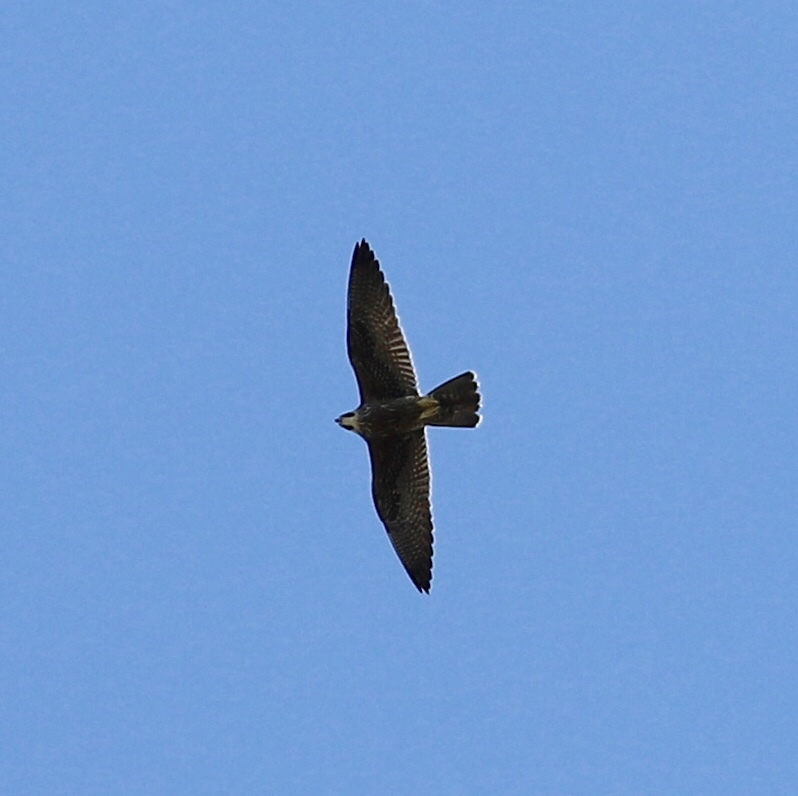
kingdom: Animalia
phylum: Chordata
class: Aves
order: Falconiformes
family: Falconidae
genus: Falco
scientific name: Falco peregrinus
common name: Peregrine falcon
